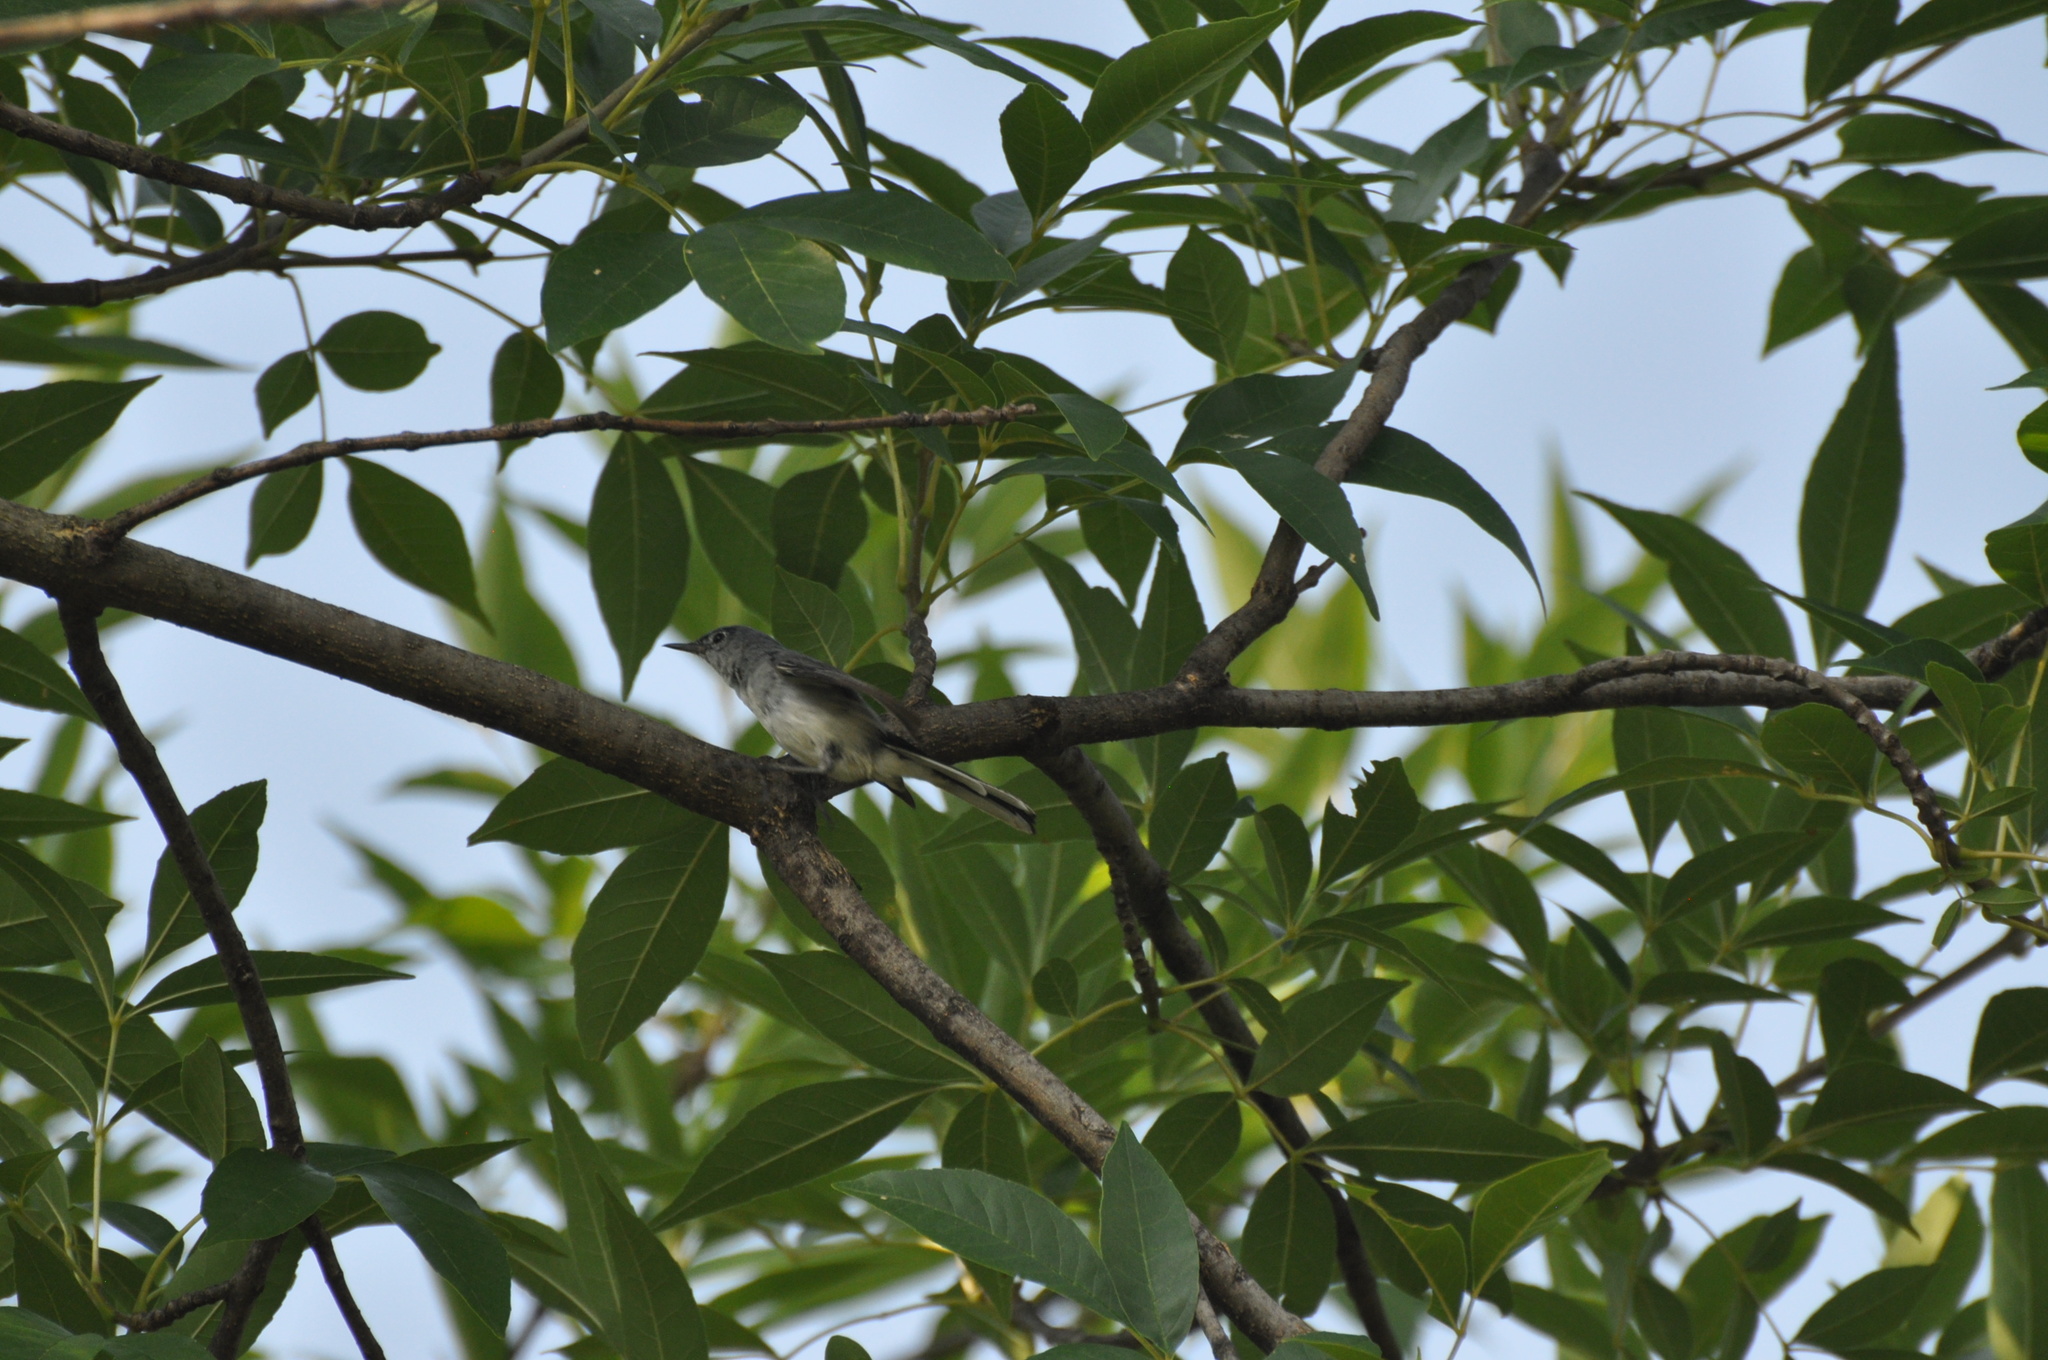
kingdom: Animalia
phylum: Chordata
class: Aves
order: Passeriformes
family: Polioptilidae
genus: Polioptila
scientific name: Polioptila caerulea
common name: Blue-gray gnatcatcher
